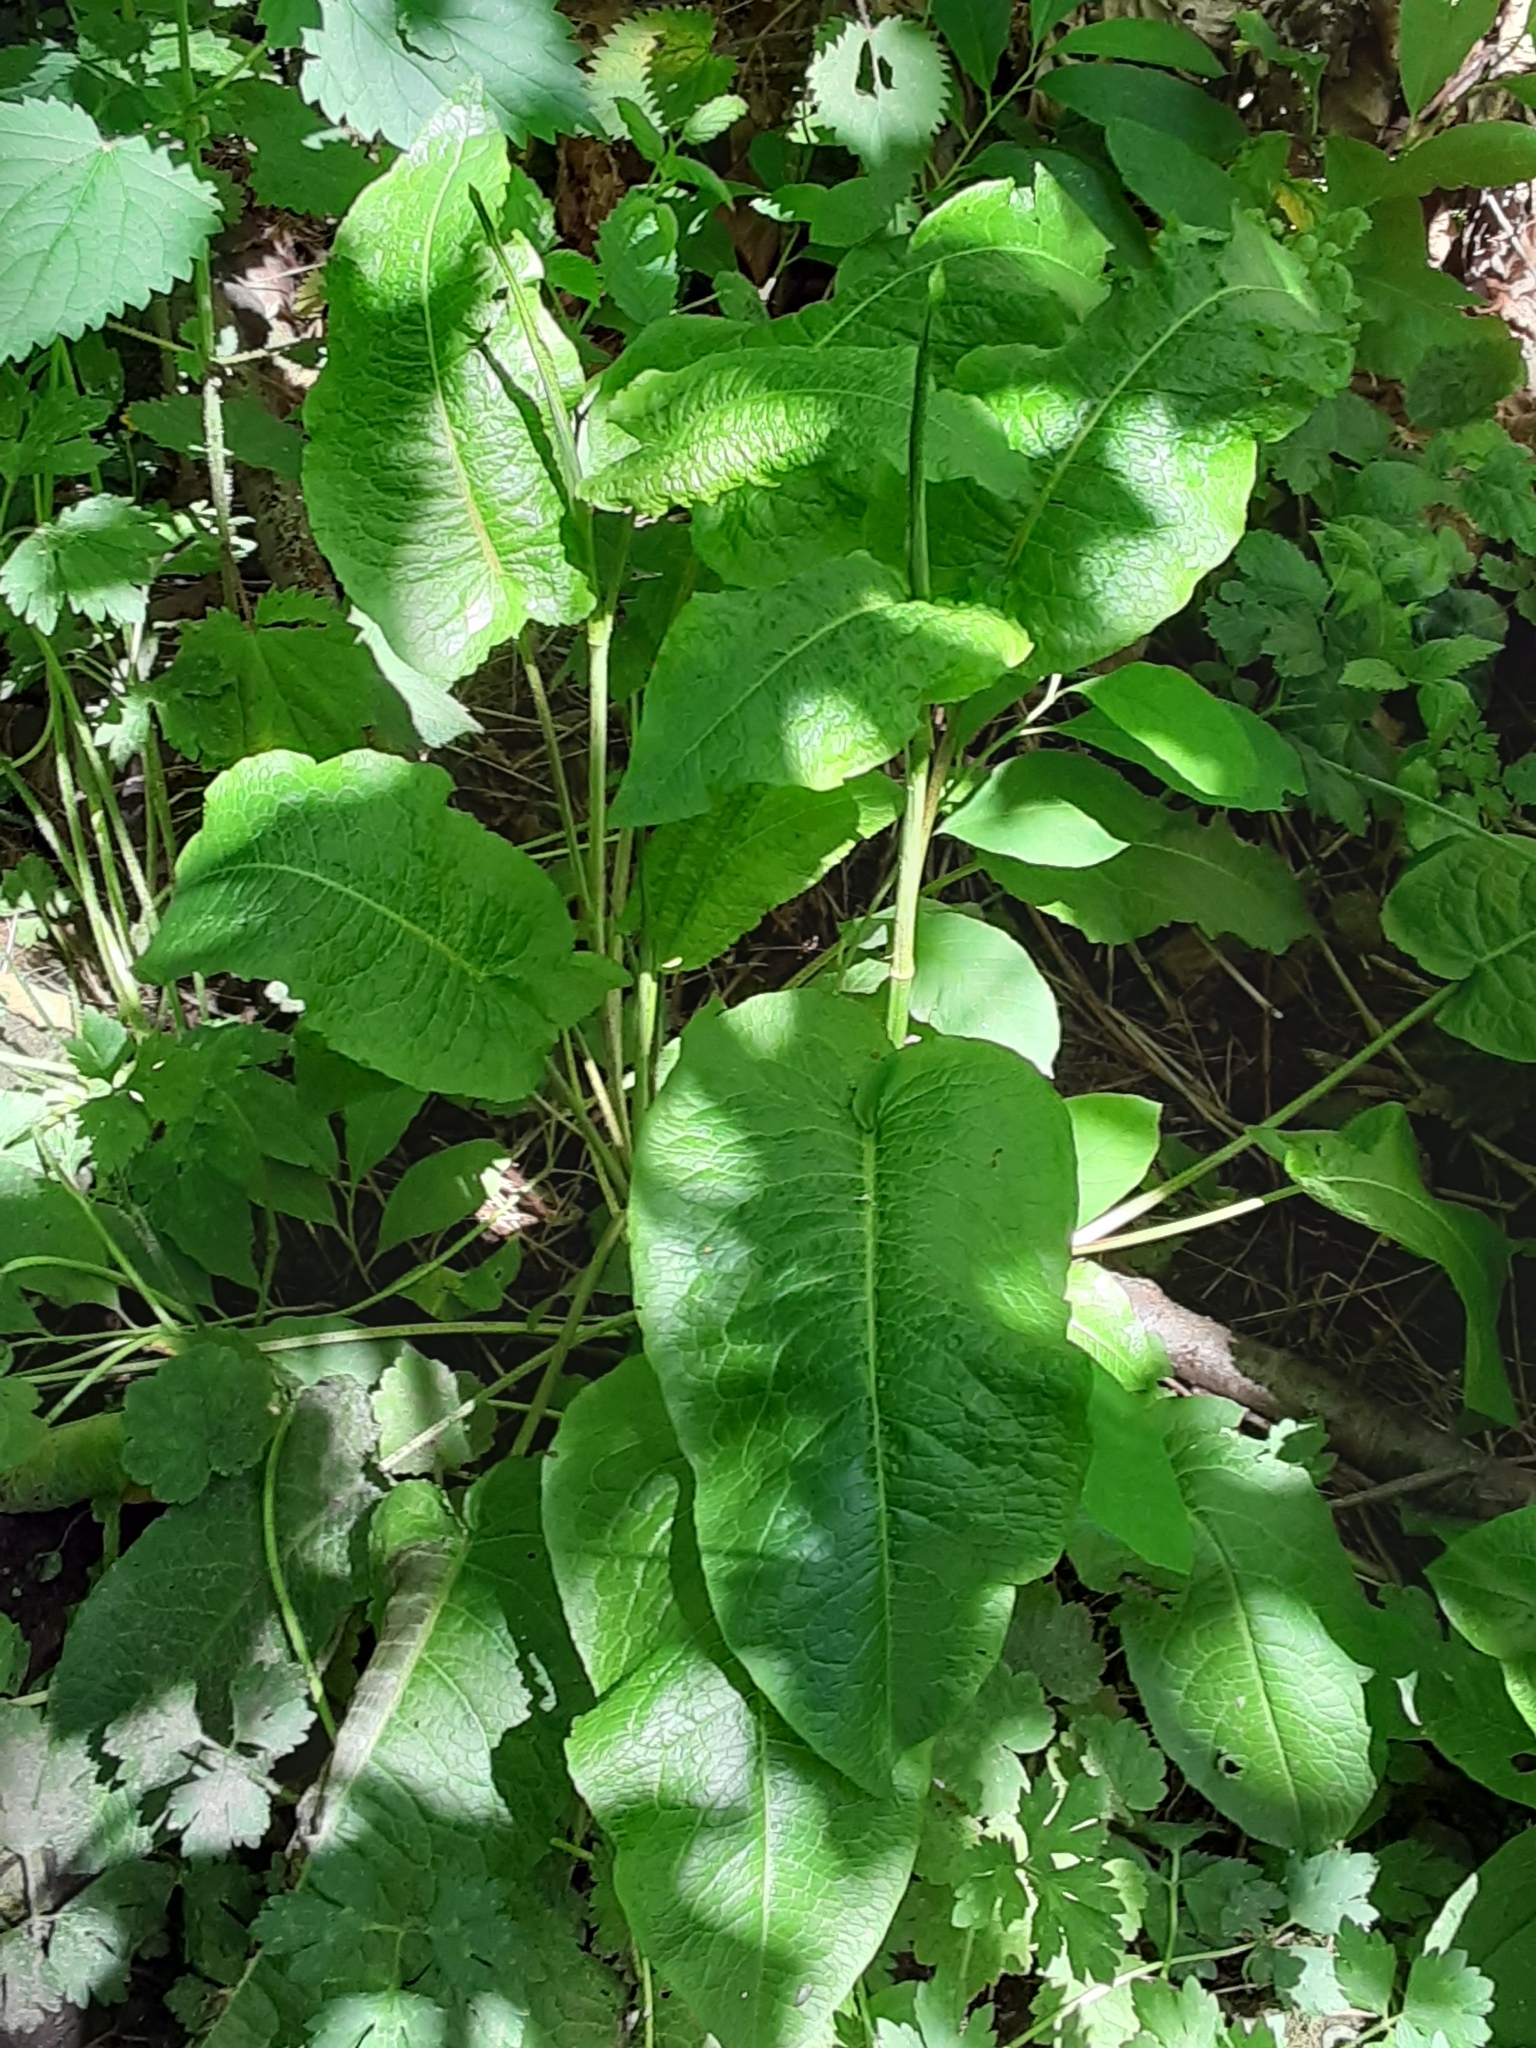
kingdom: Plantae
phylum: Tracheophyta
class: Magnoliopsida
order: Caryophyllales
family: Polygonaceae
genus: Rumex
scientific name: Rumex obtusifolius
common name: Bitter dock
